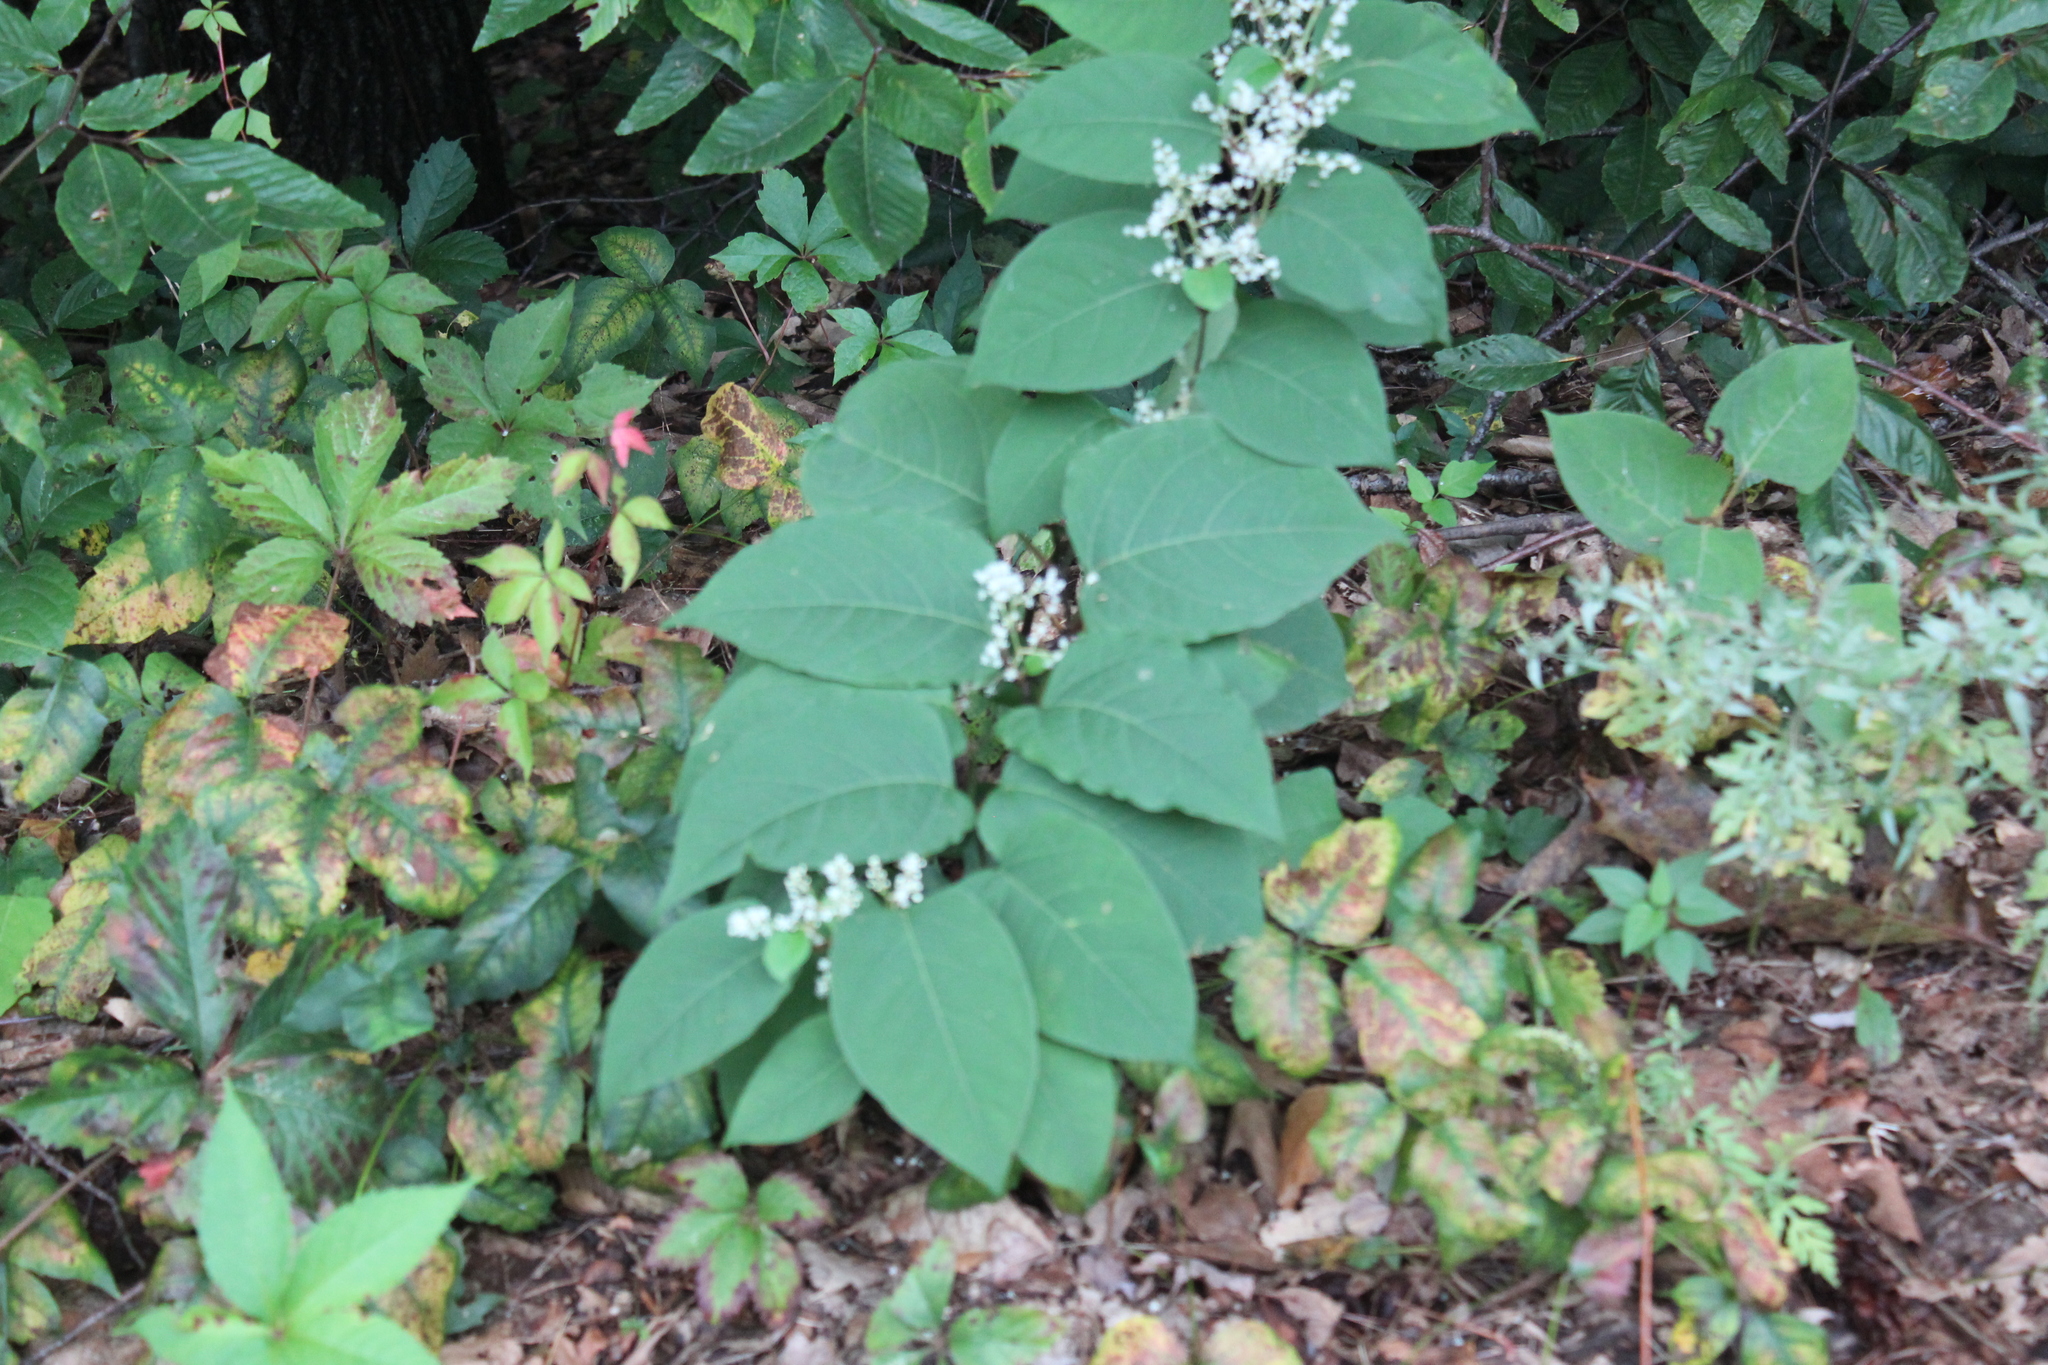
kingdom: Plantae
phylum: Tracheophyta
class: Magnoliopsida
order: Caryophyllales
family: Polygonaceae
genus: Reynoutria
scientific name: Reynoutria japonica
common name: Japanese knotweed
